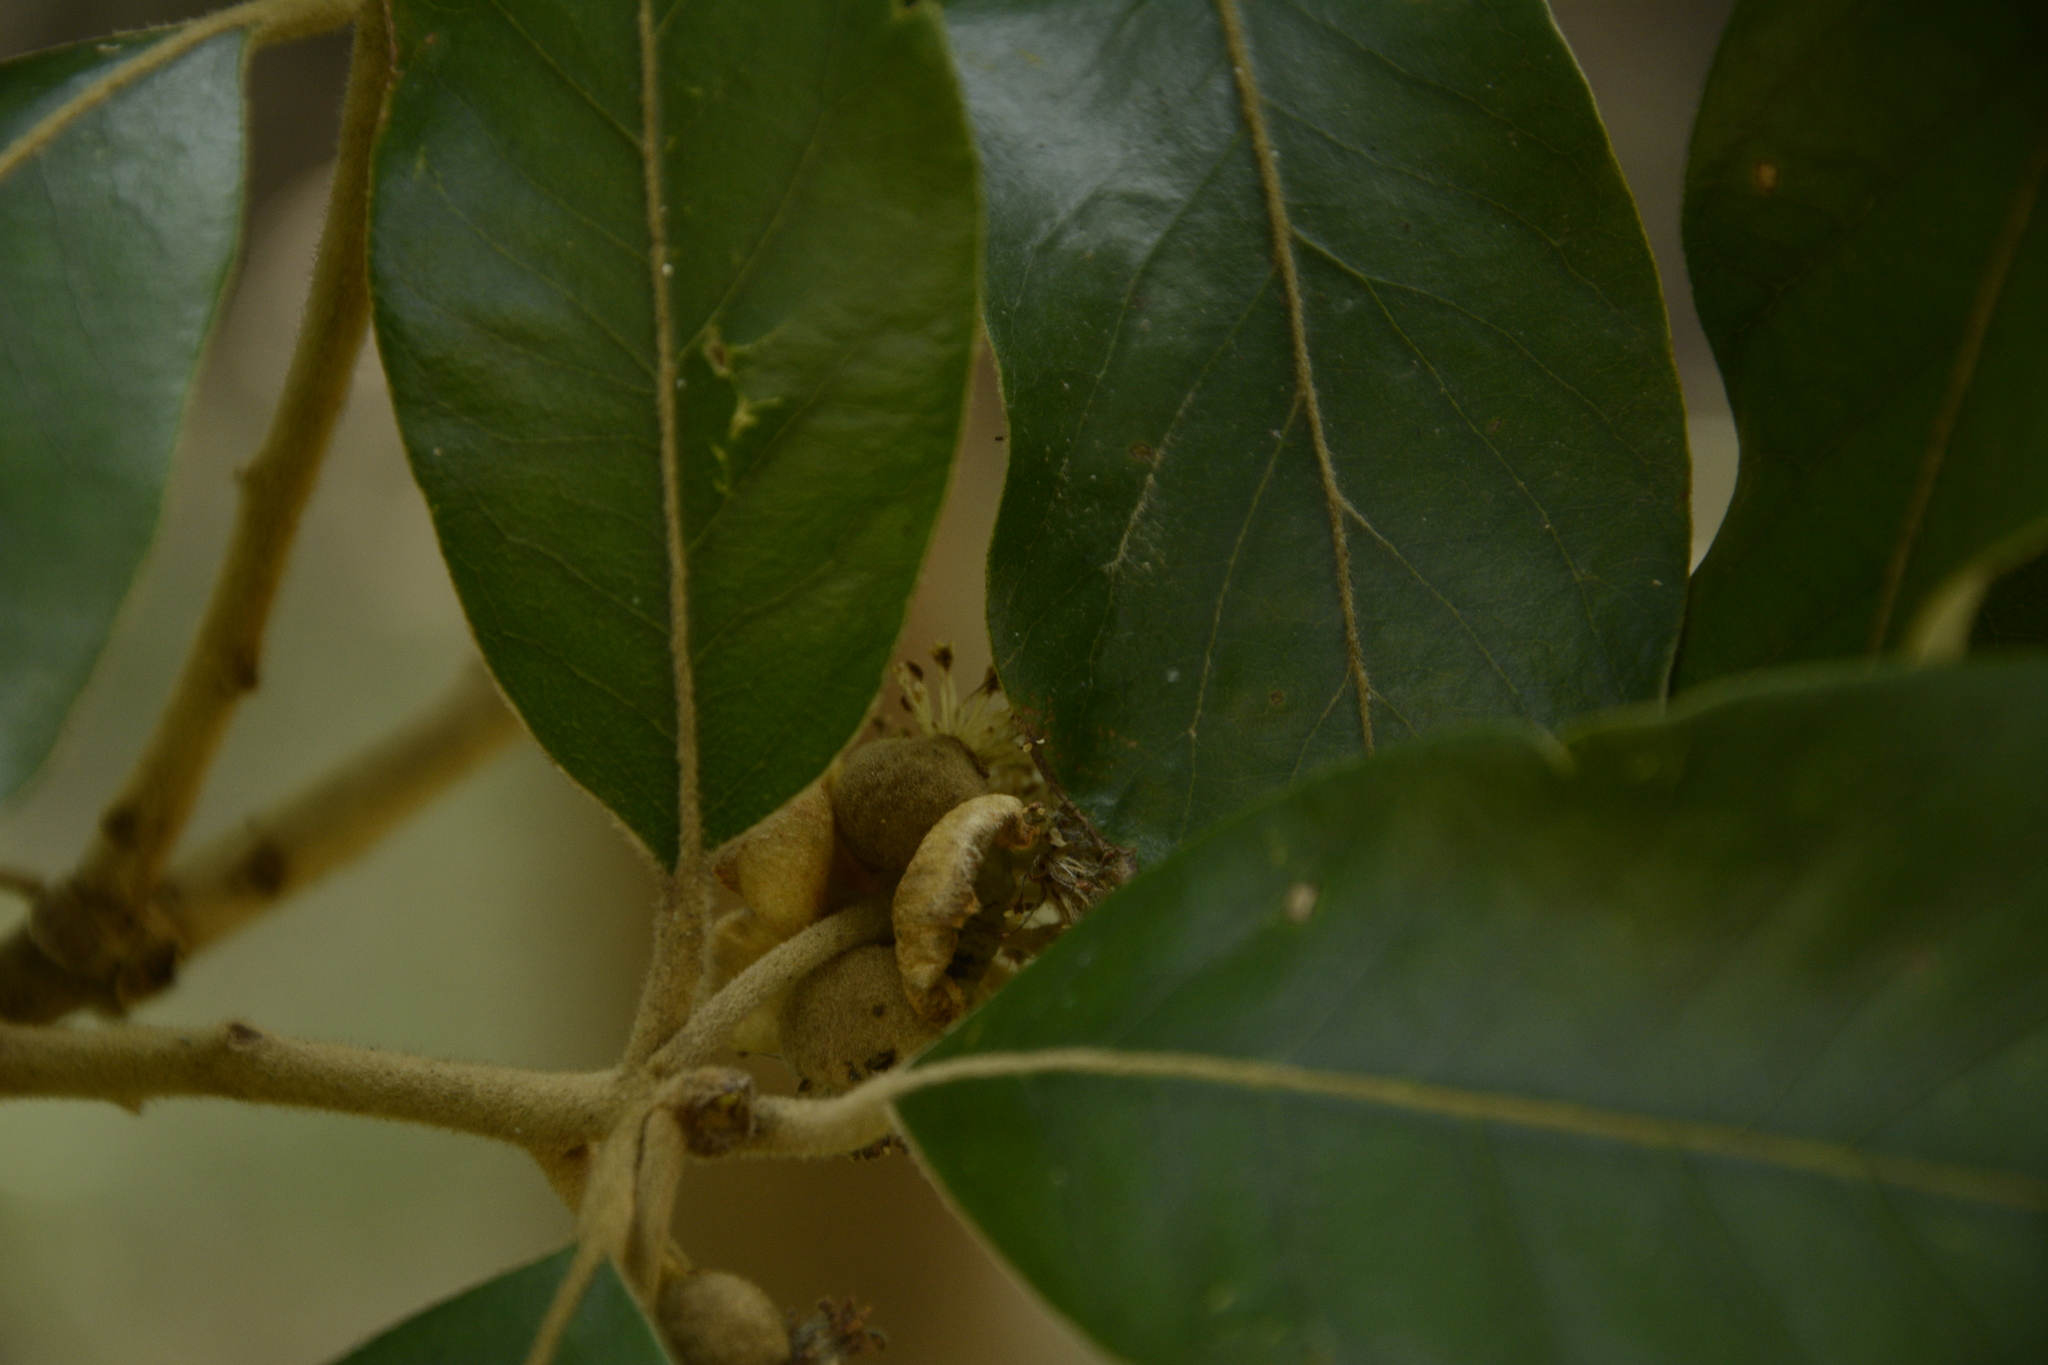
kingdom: Plantae
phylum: Tracheophyta
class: Magnoliopsida
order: Laurales
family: Lauraceae
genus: Litsea
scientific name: Litsea ligustrina
